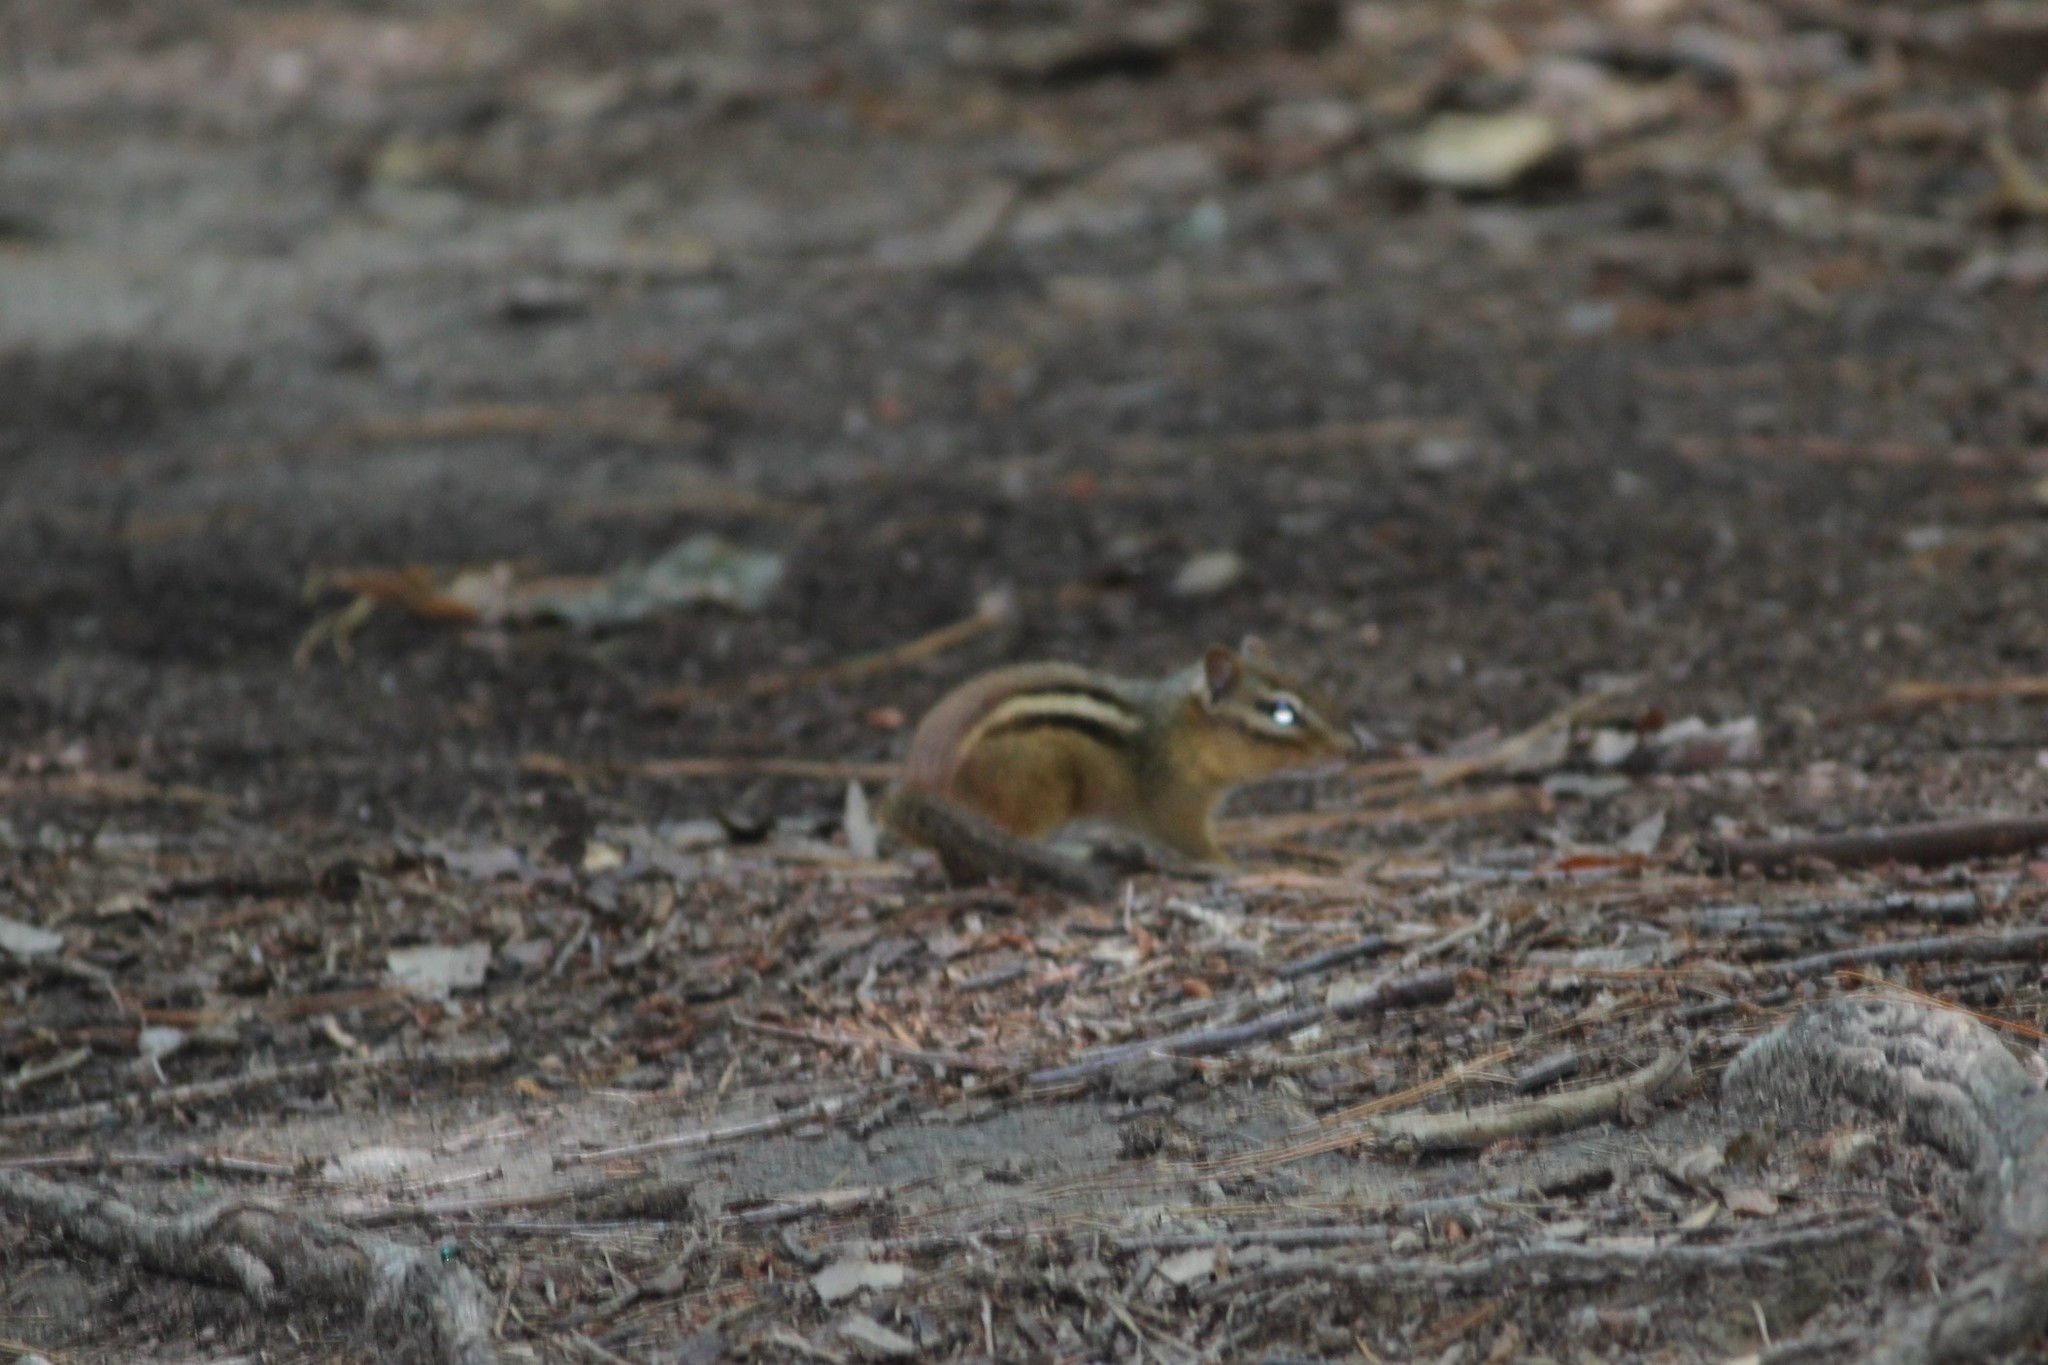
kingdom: Animalia
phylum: Chordata
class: Mammalia
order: Rodentia
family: Sciuridae
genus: Tamias
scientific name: Tamias striatus
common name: Eastern chipmunk
